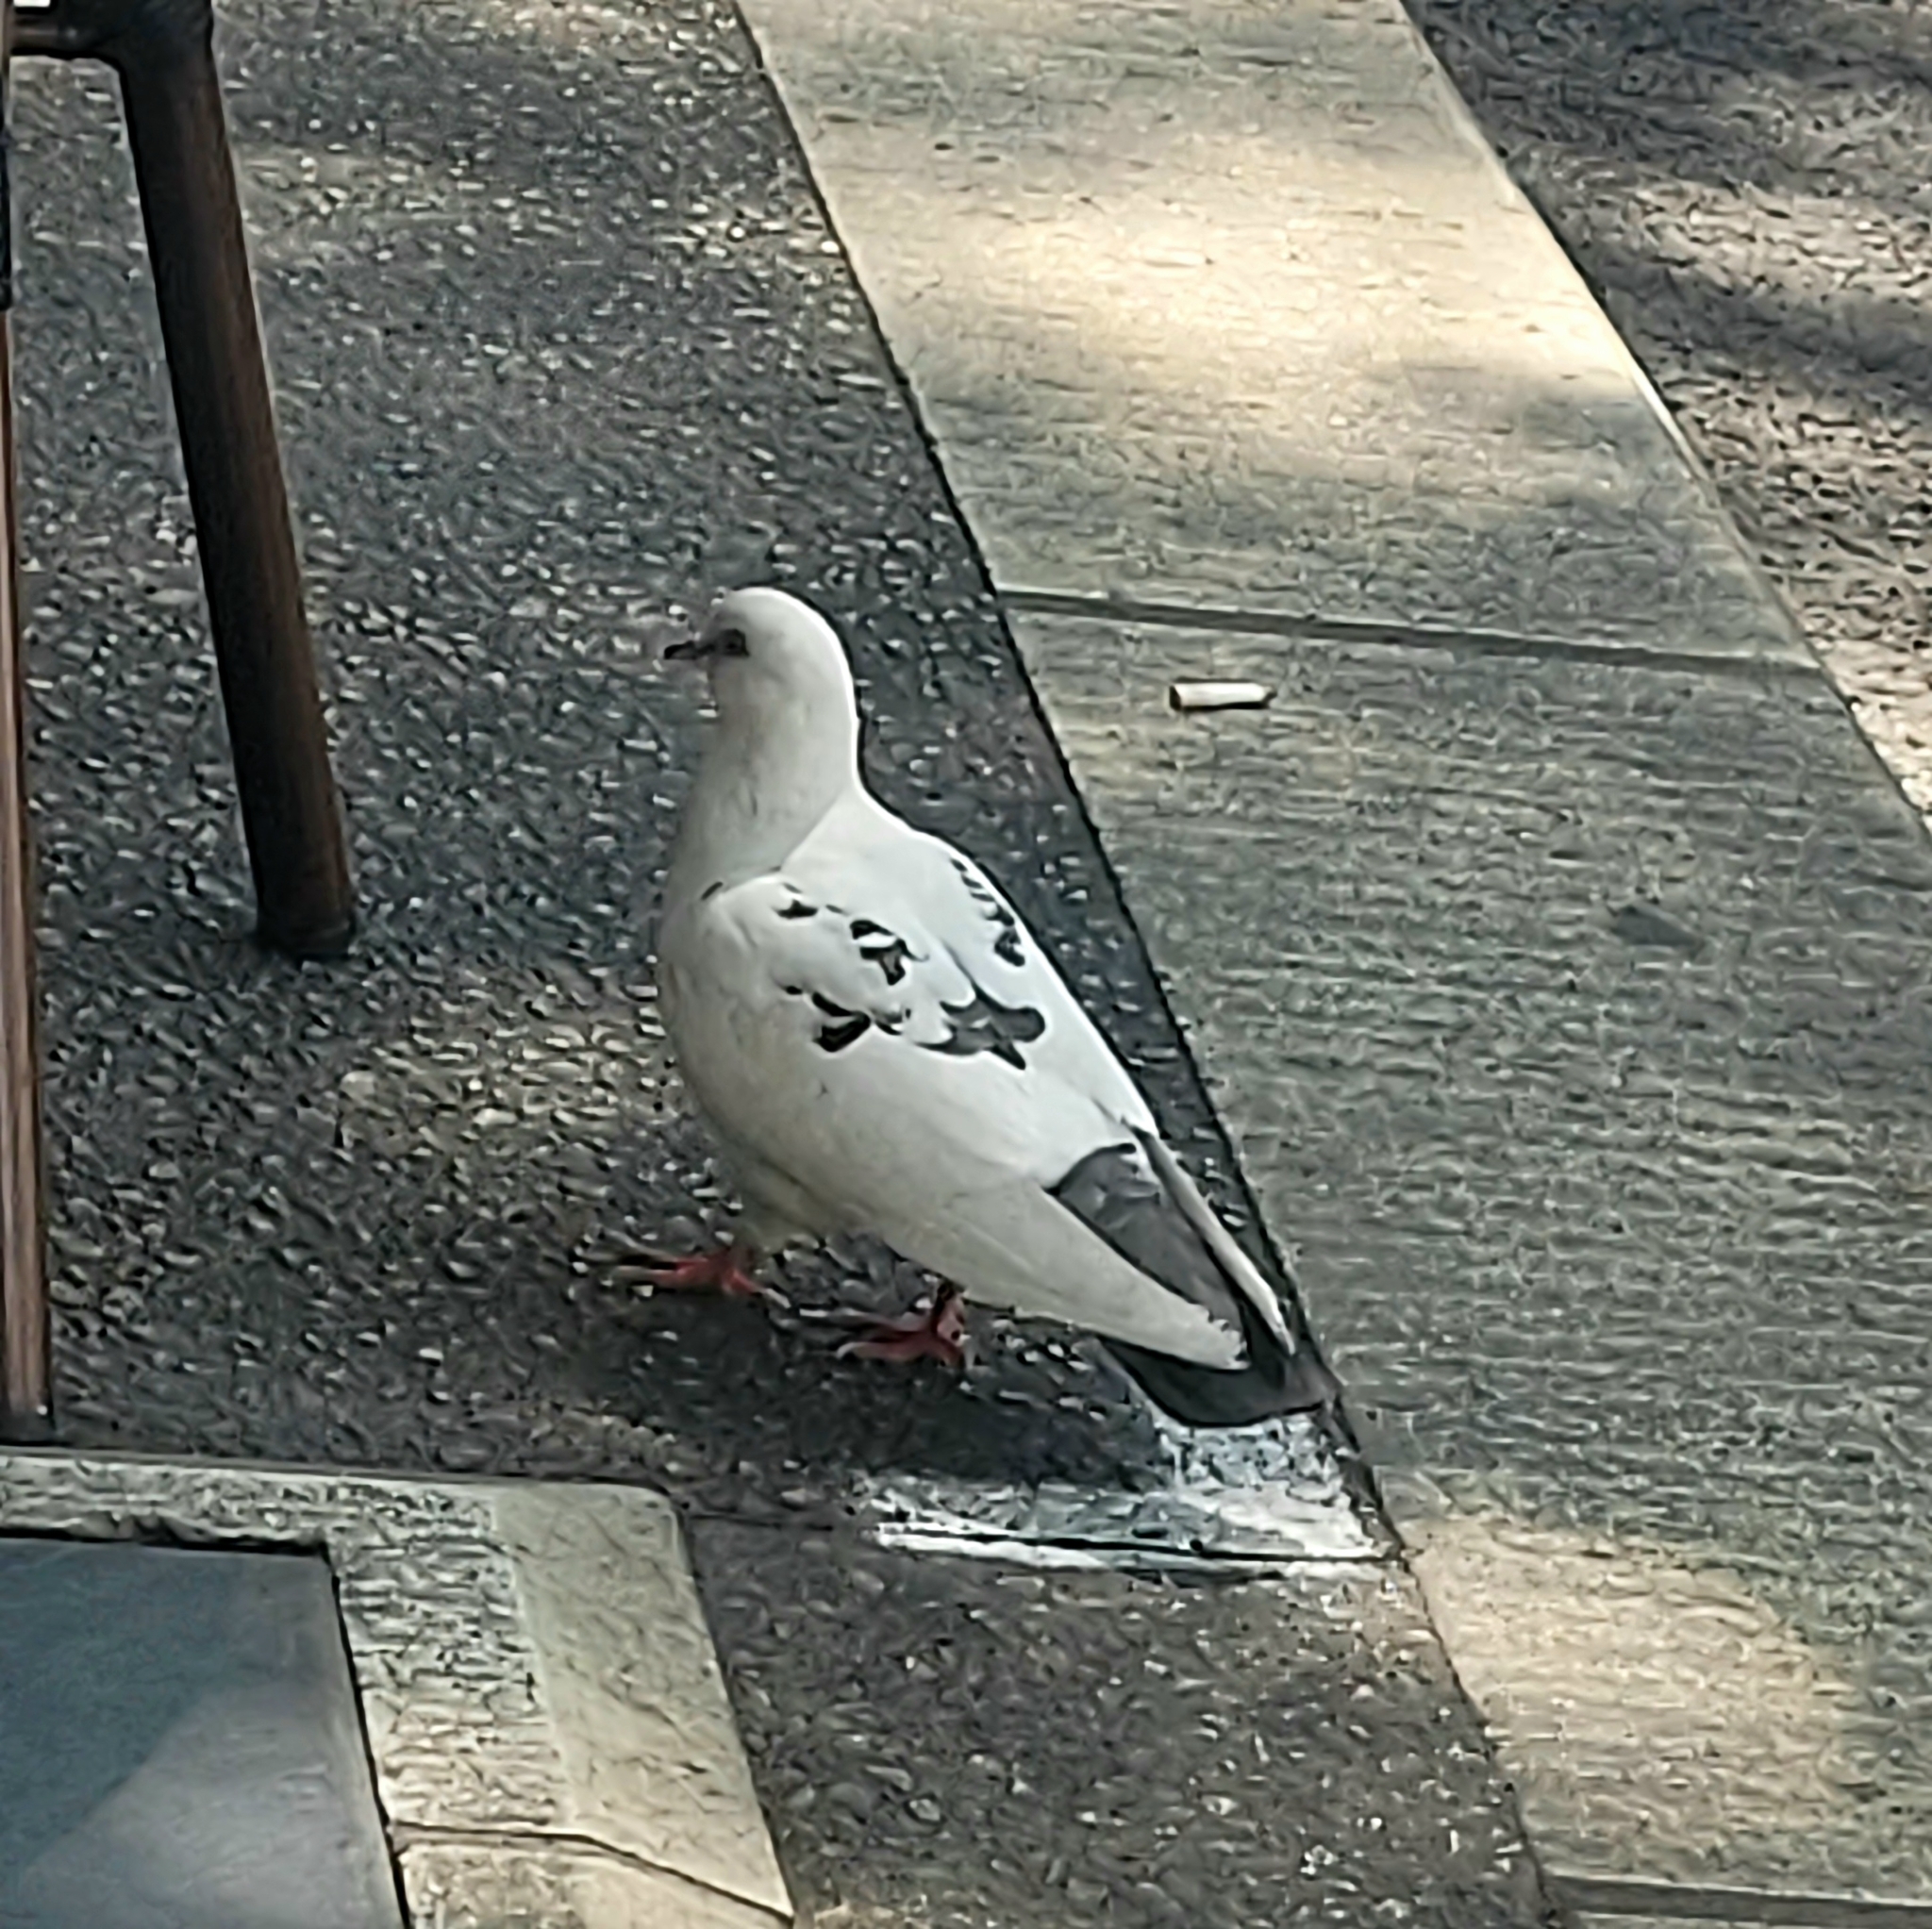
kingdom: Animalia
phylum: Chordata
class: Aves
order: Columbiformes
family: Columbidae
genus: Columba
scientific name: Columba livia
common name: Rock pigeon
